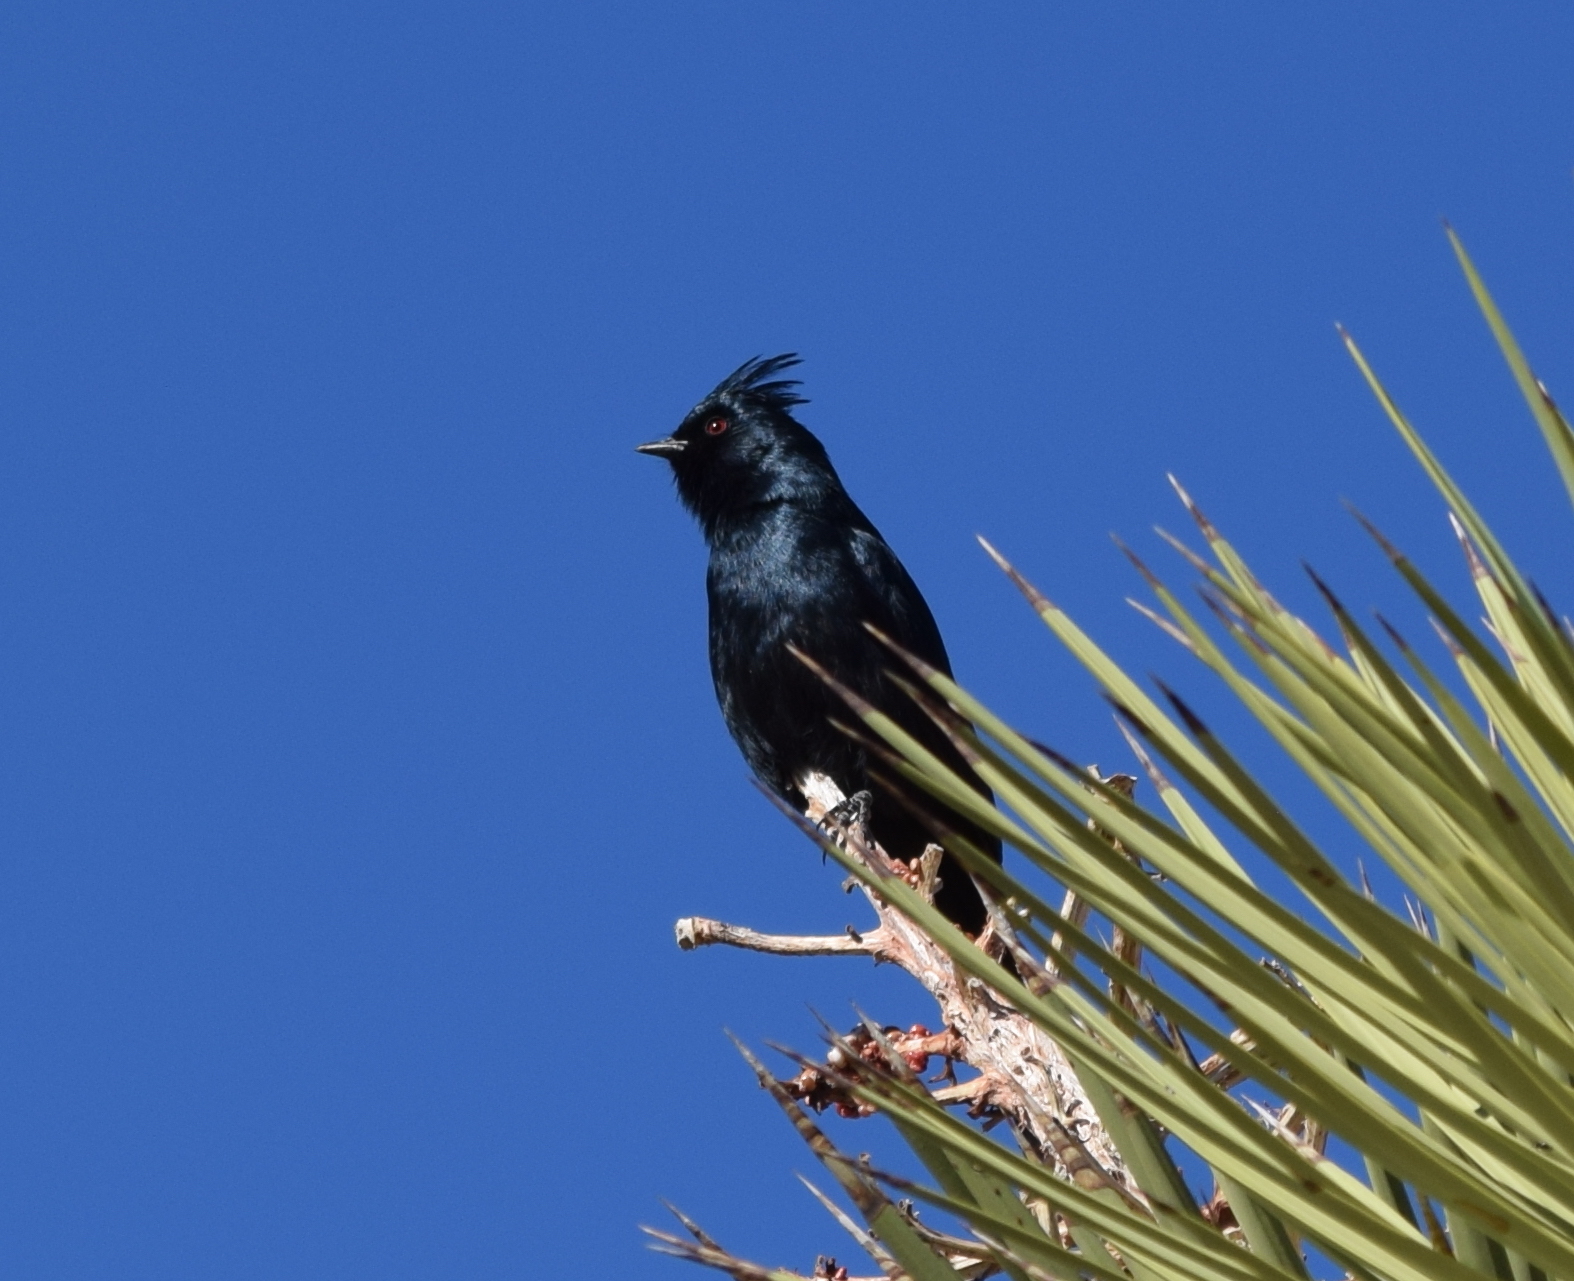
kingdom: Animalia
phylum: Chordata
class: Aves
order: Passeriformes
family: Ptilogonatidae
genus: Phainopepla
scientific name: Phainopepla nitens
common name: Phainopepla
